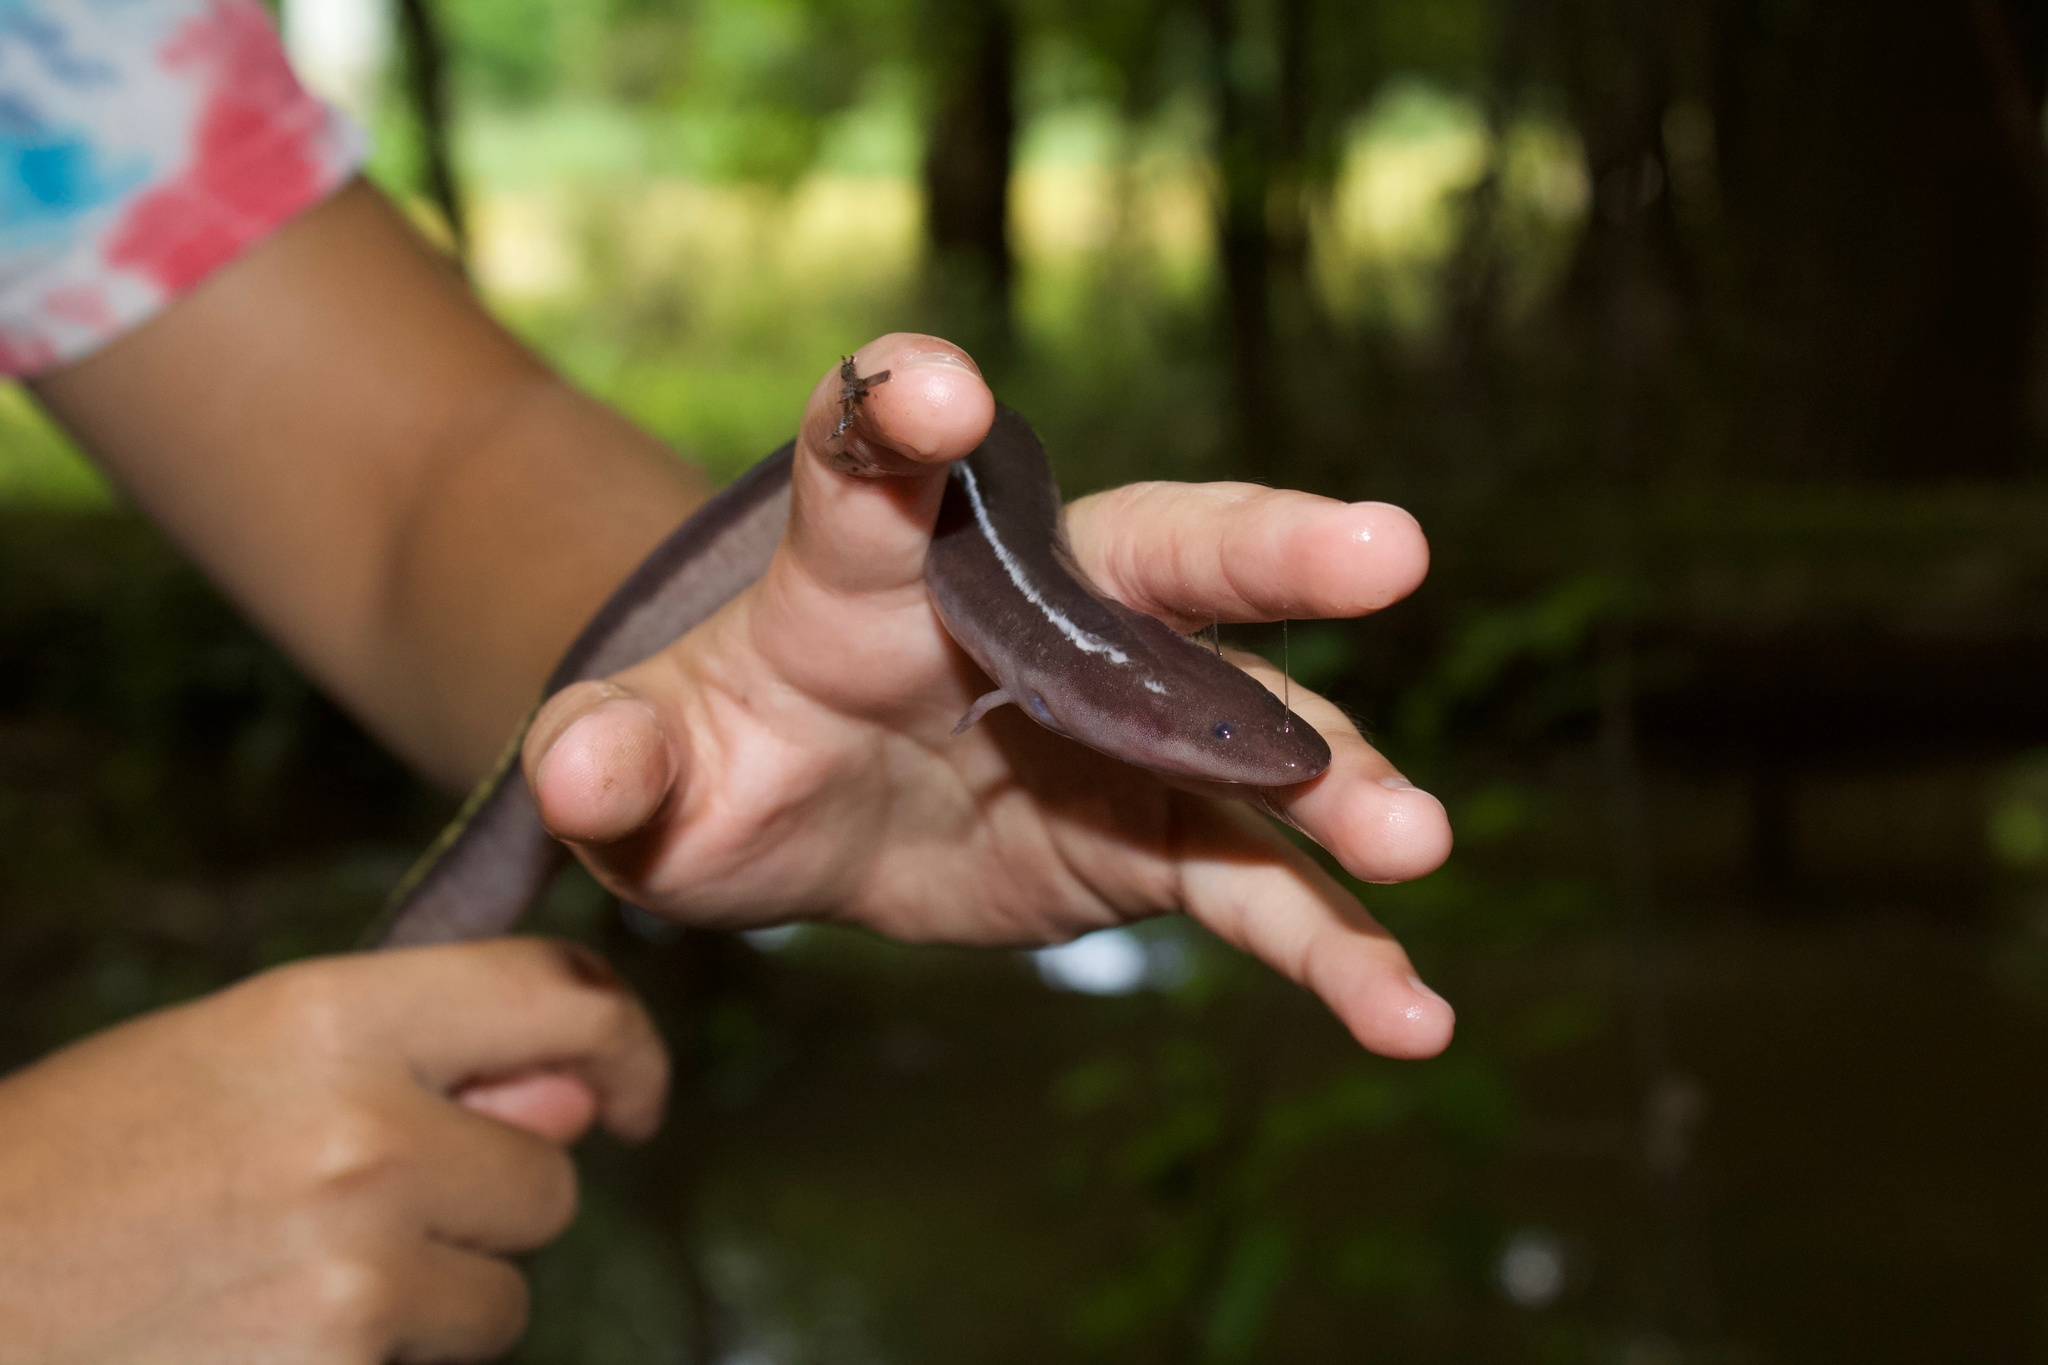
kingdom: Animalia
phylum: Chordata
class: Amphibia
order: Caudata
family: Amphiumidae
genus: Amphiuma
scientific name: Amphiuma tridactylum
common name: Three-toed amphiuma
